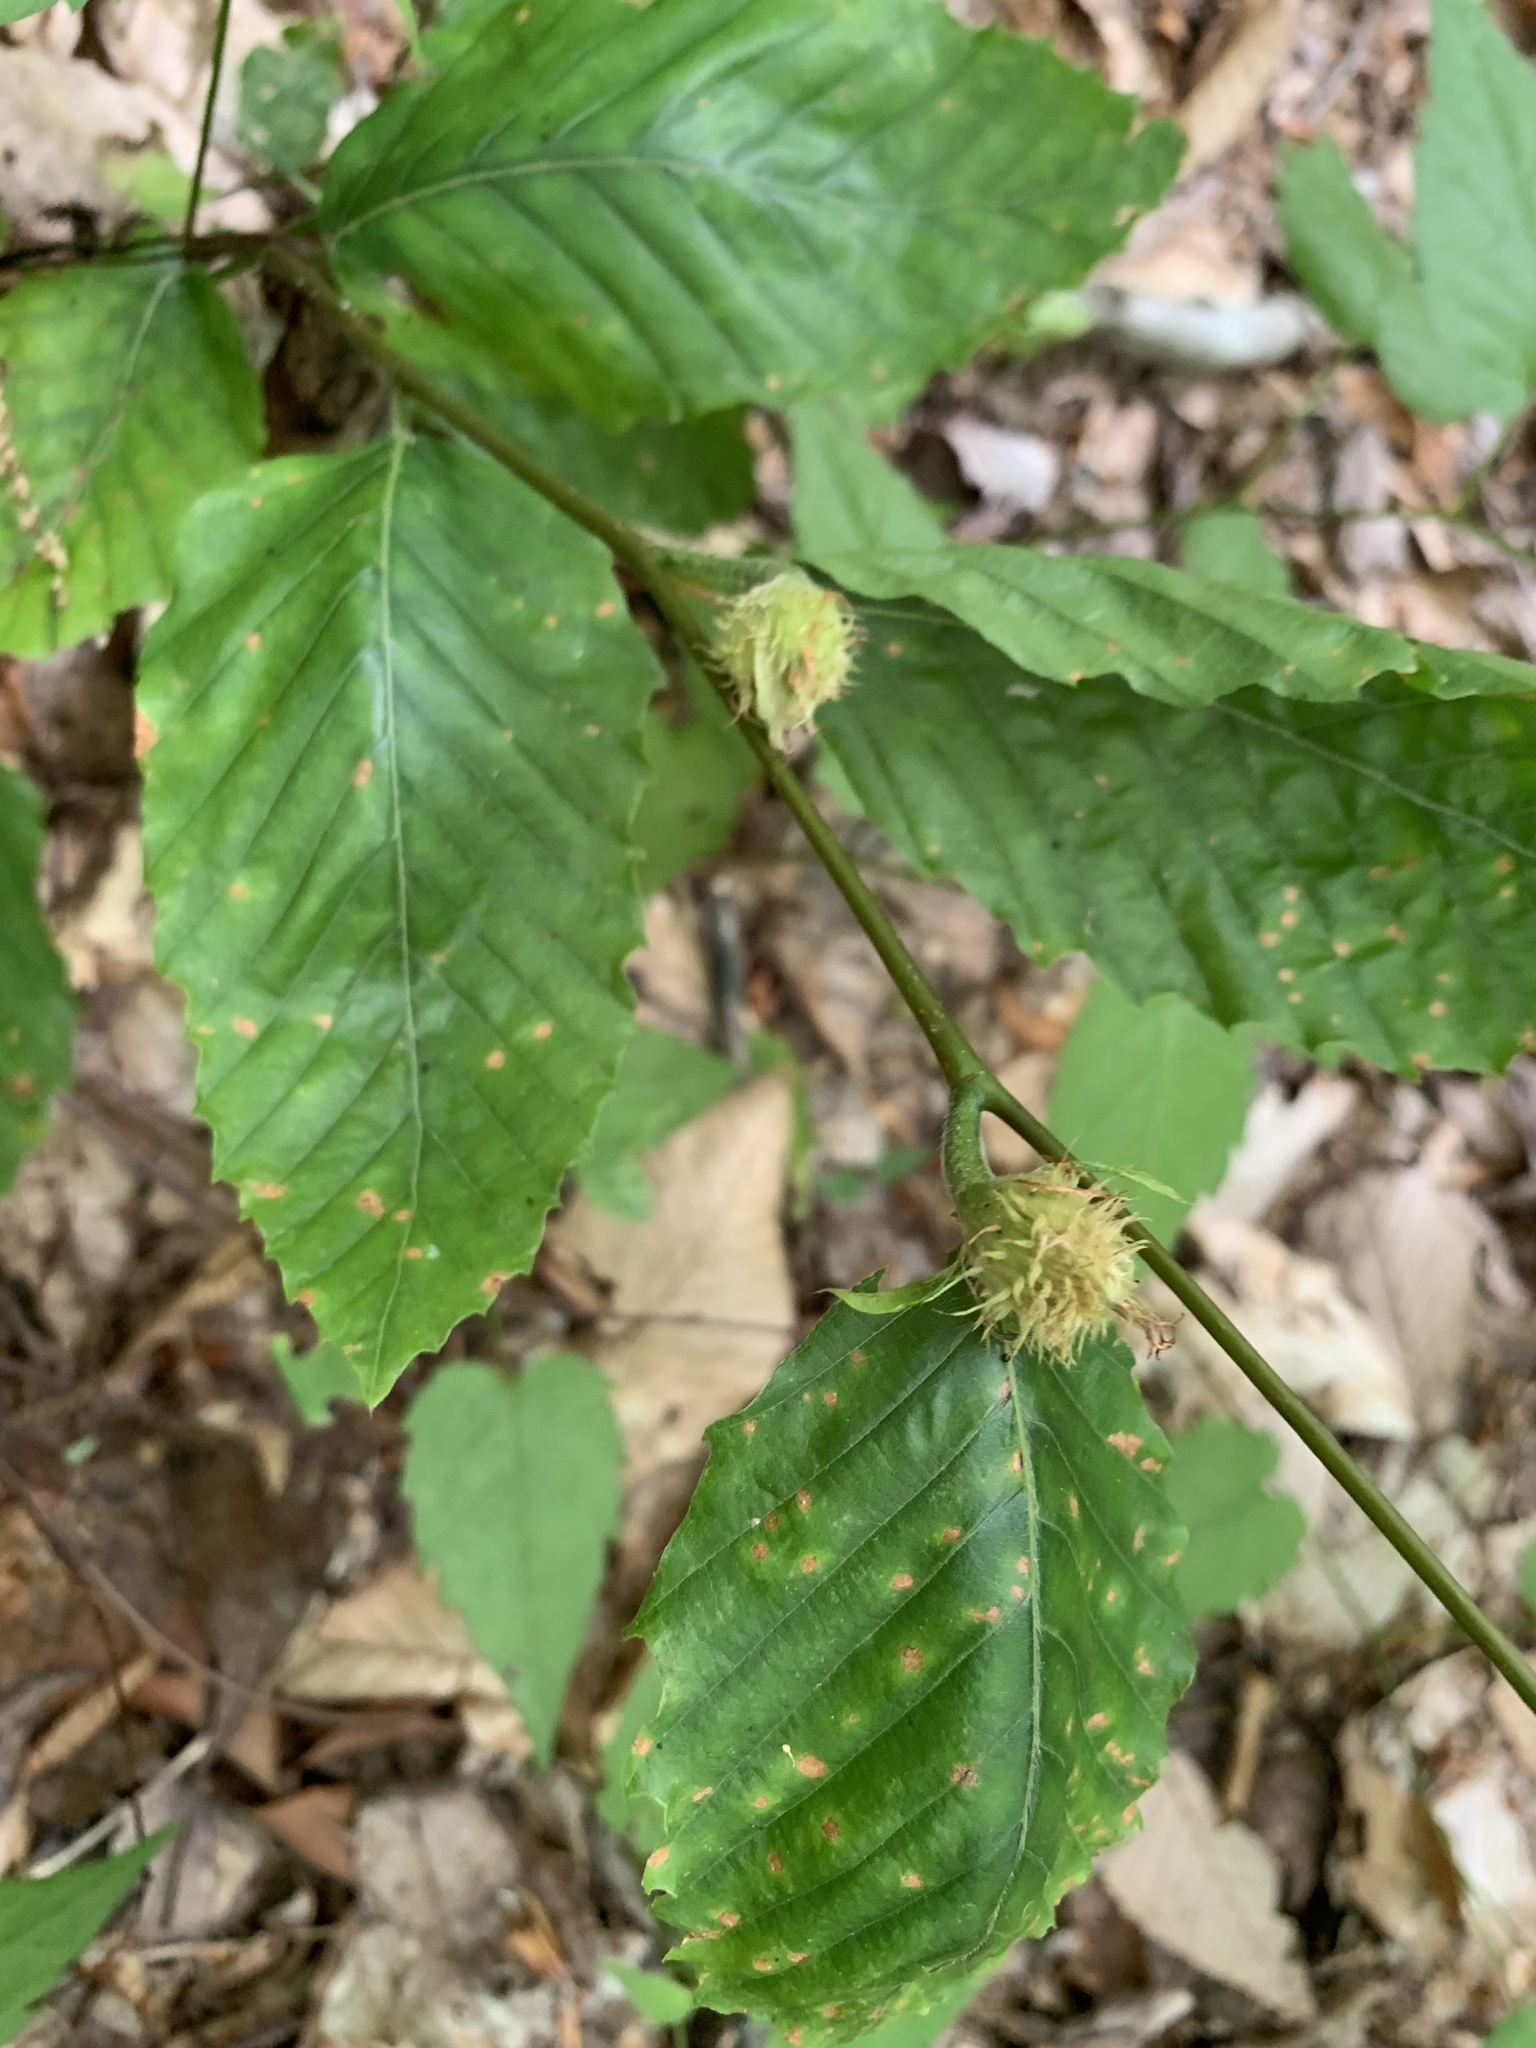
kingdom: Plantae
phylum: Tracheophyta
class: Magnoliopsida
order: Fagales
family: Fagaceae
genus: Fagus
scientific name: Fagus grandifolia
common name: American beech
